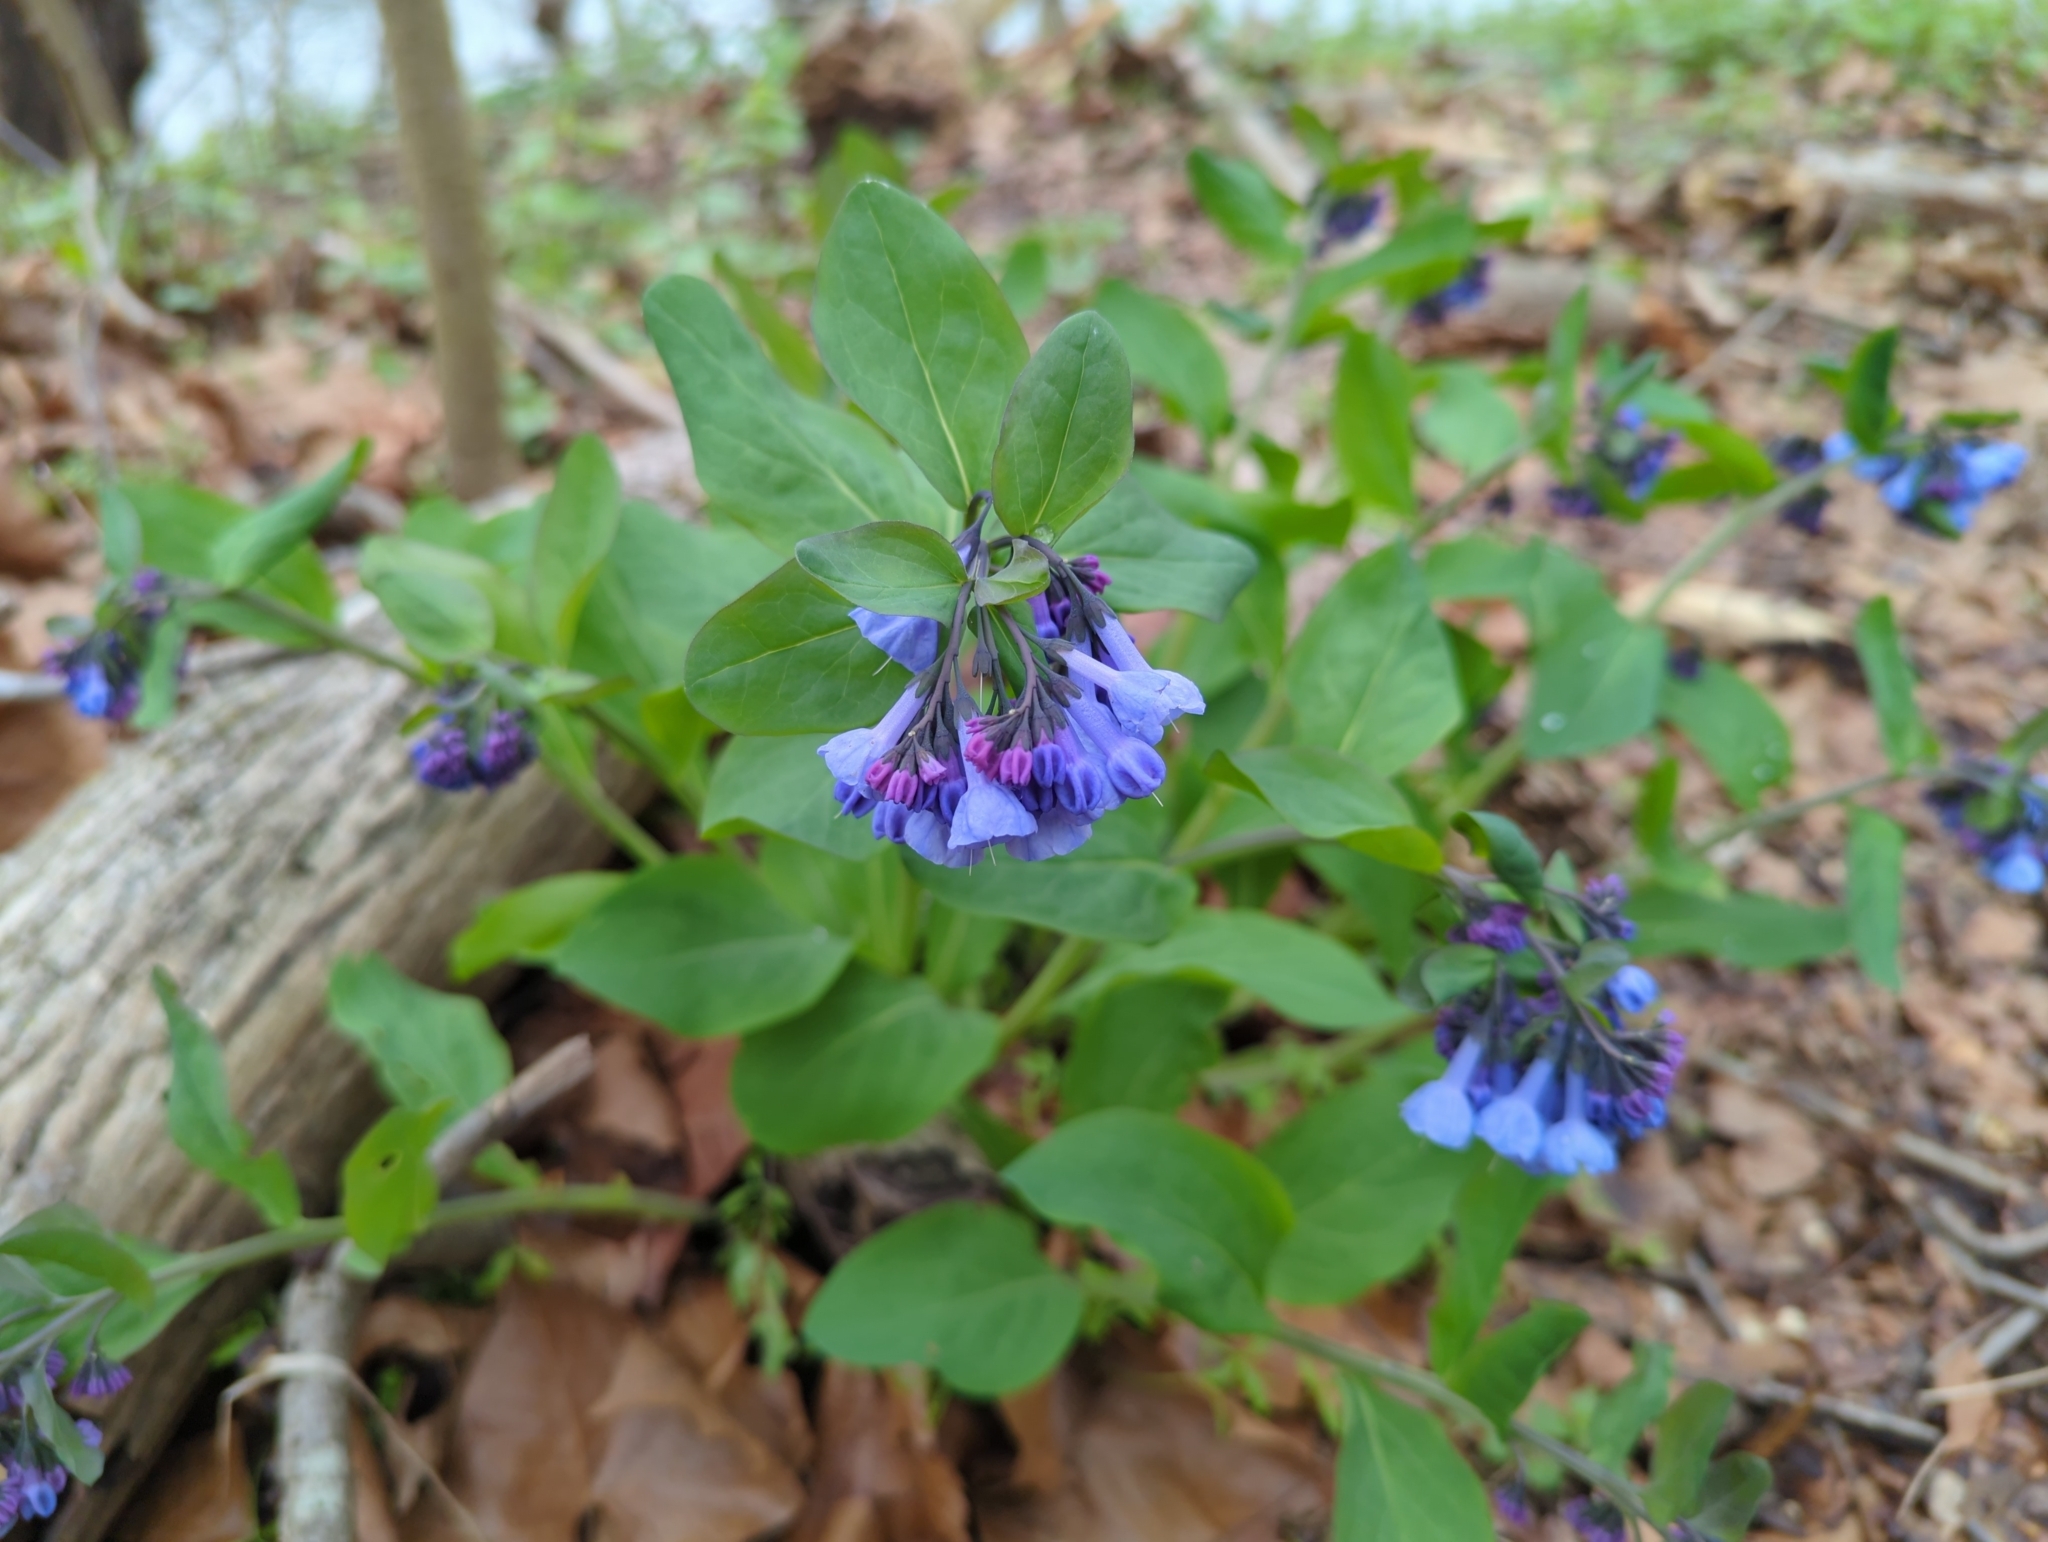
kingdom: Plantae
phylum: Tracheophyta
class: Magnoliopsida
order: Boraginales
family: Boraginaceae
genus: Mertensia
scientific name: Mertensia virginica
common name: Virginia bluebells
